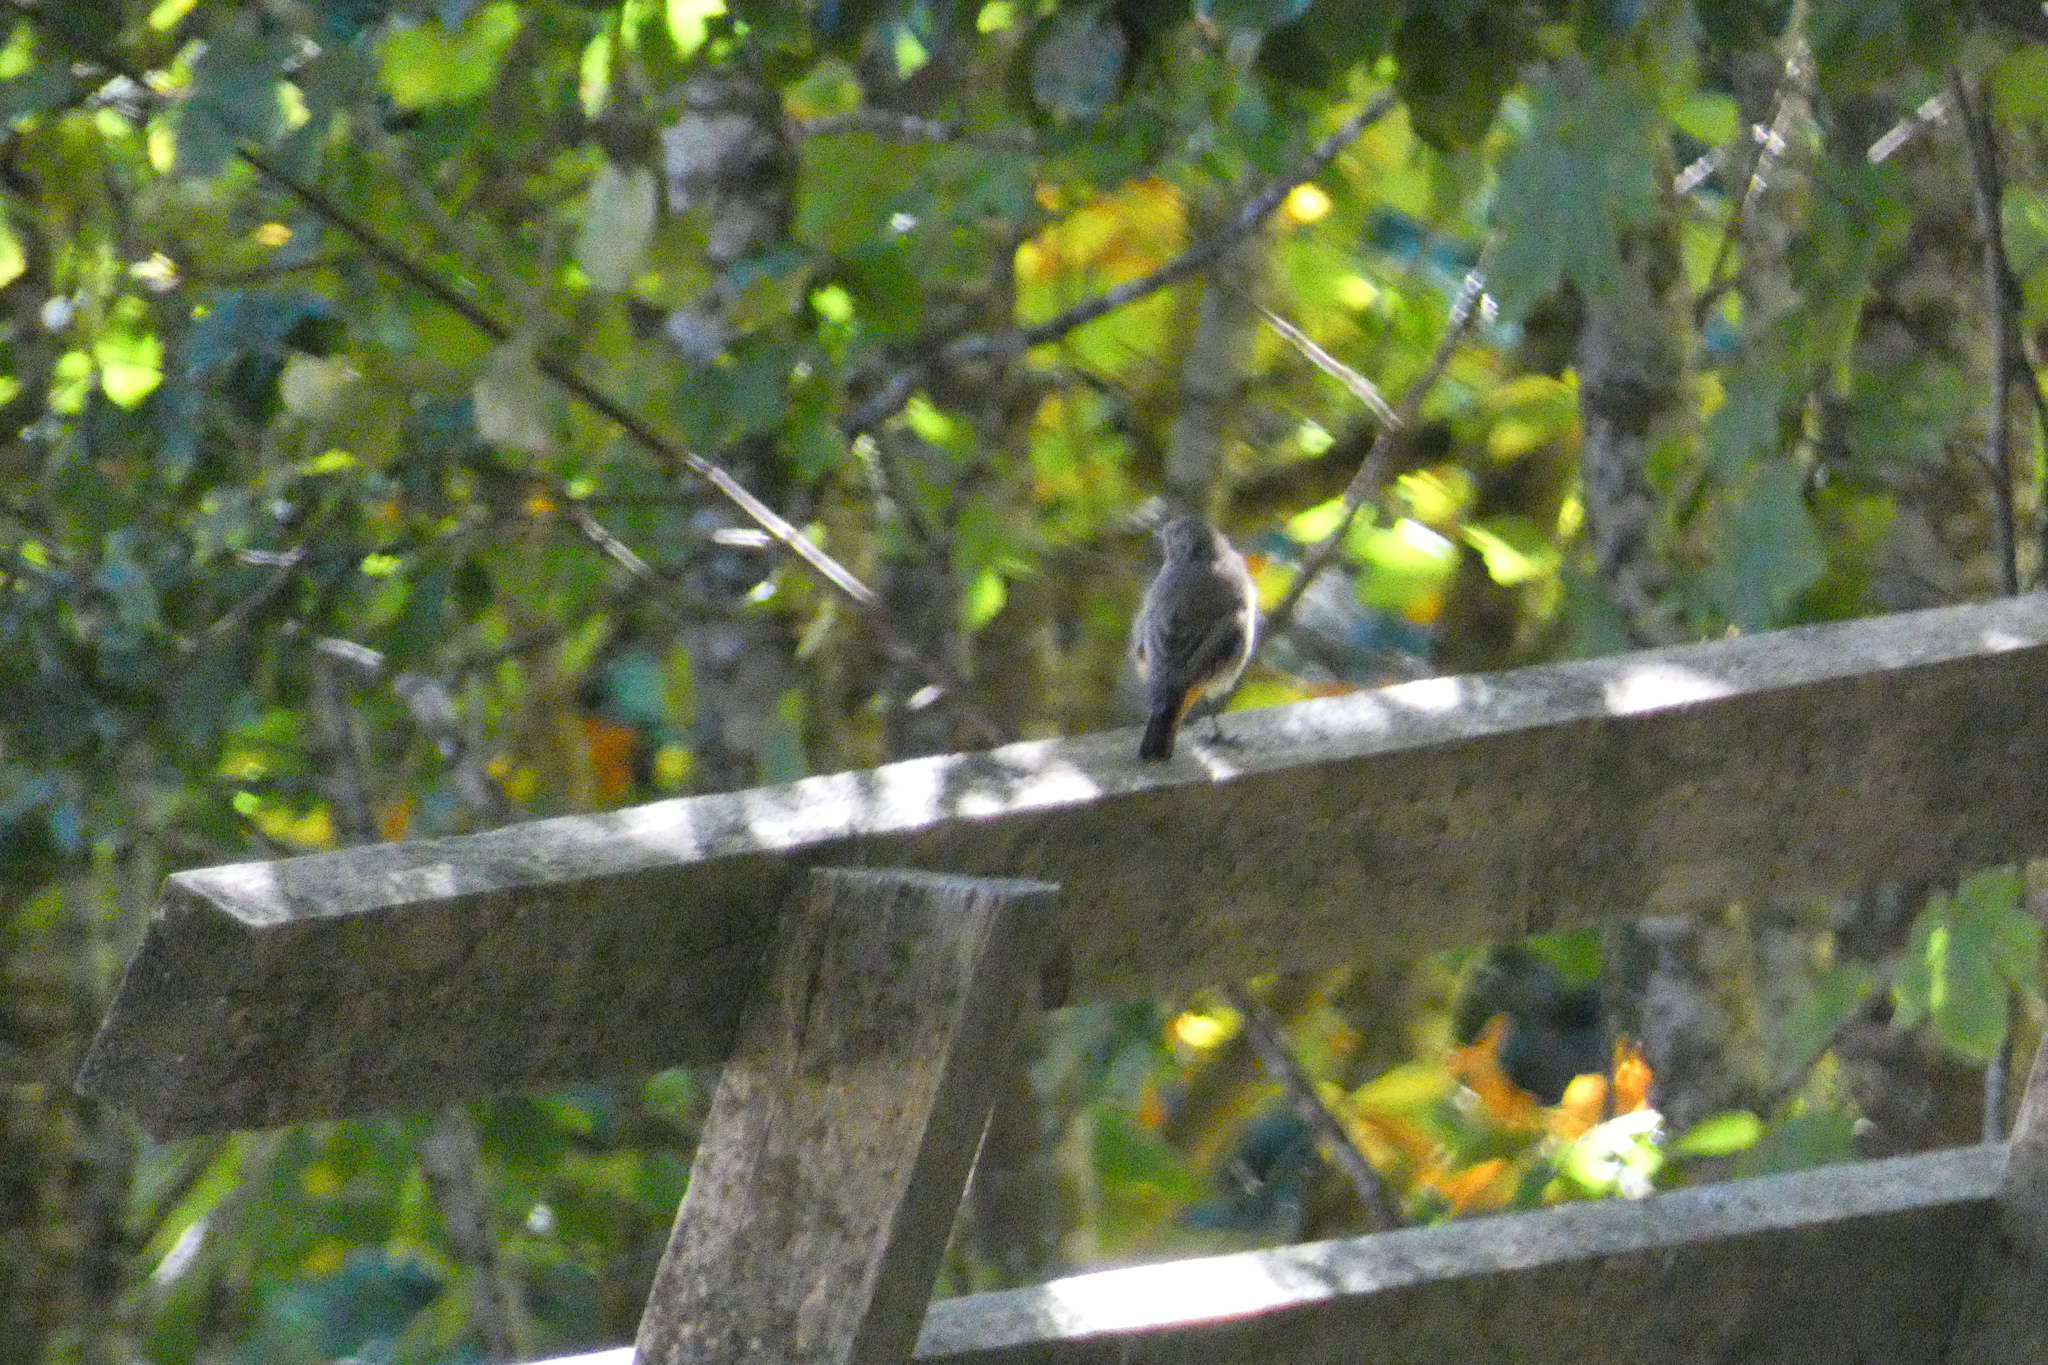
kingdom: Animalia
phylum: Chordata
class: Aves
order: Passeriformes
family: Motacillidae
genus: Motacilla
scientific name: Motacilla cinerea
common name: Grey wagtail
